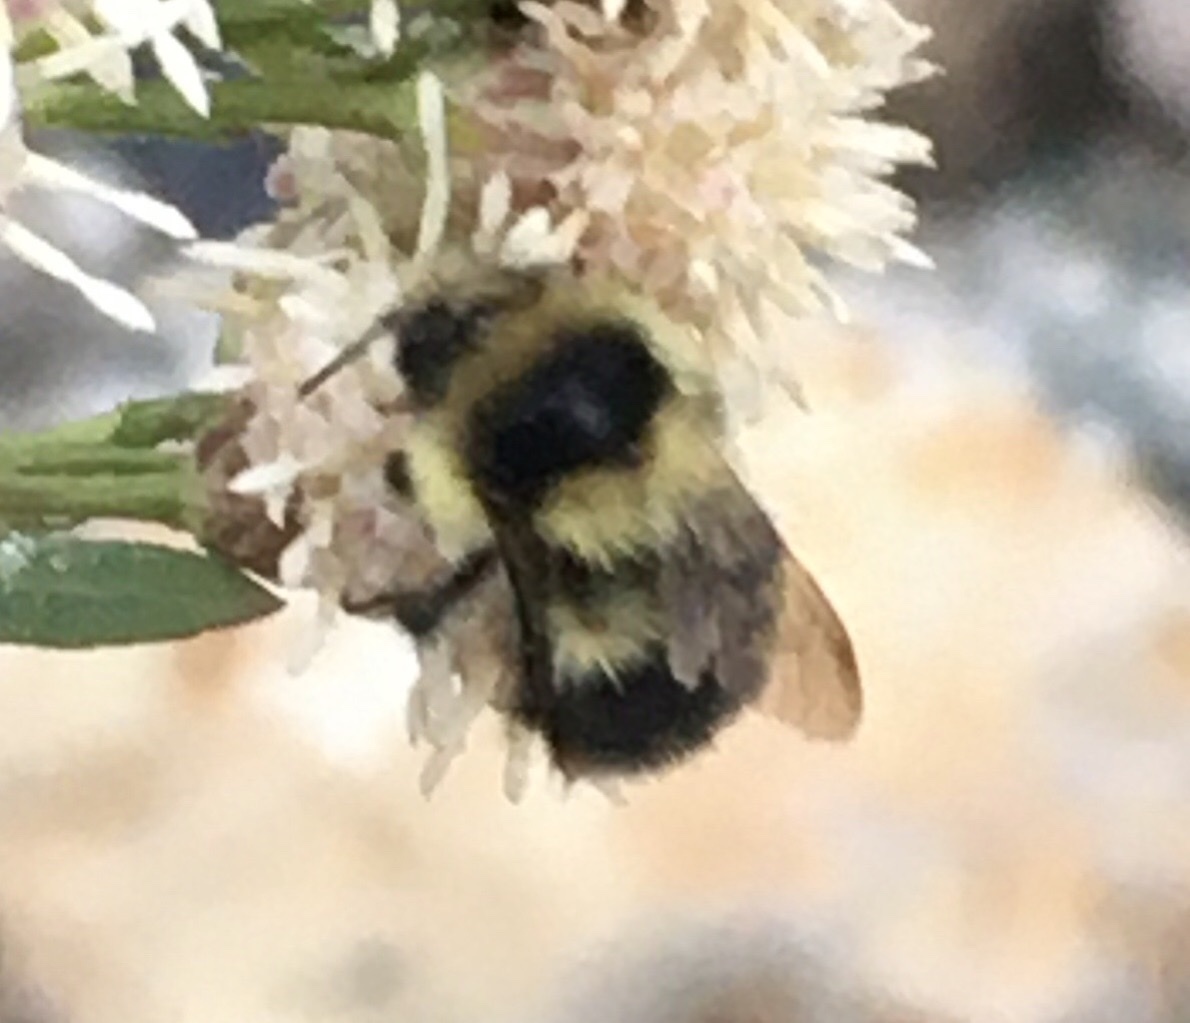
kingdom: Animalia
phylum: Arthropoda
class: Insecta
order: Hymenoptera
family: Apidae
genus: Bombus
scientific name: Bombus melanopygus
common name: Black tail bumble bee
